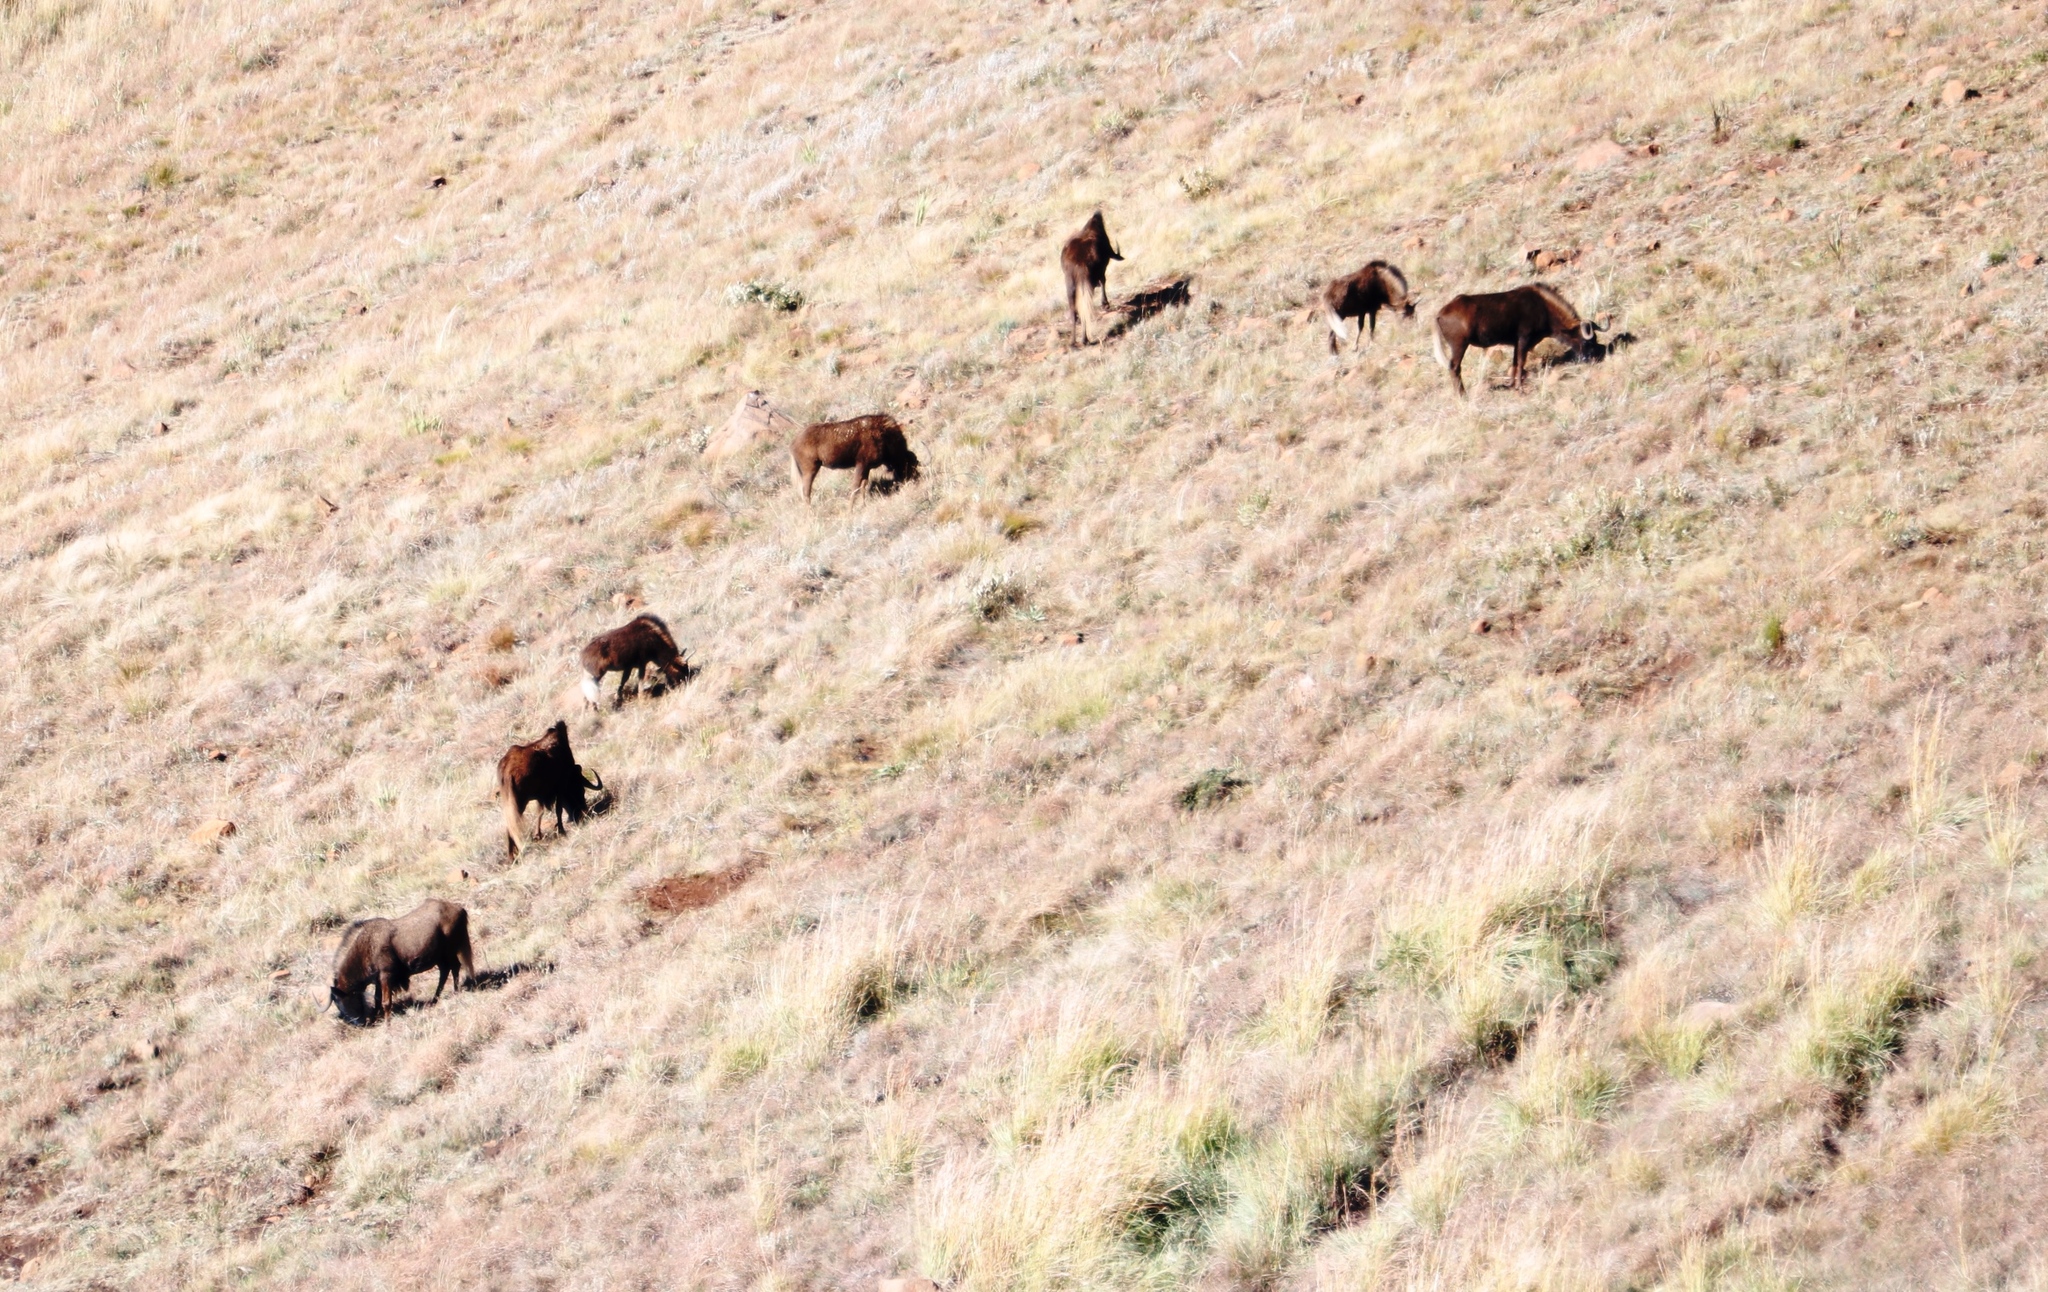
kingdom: Animalia
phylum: Chordata
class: Mammalia
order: Artiodactyla
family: Bovidae
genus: Connochaetes
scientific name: Connochaetes gnou
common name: Black wildebeest
